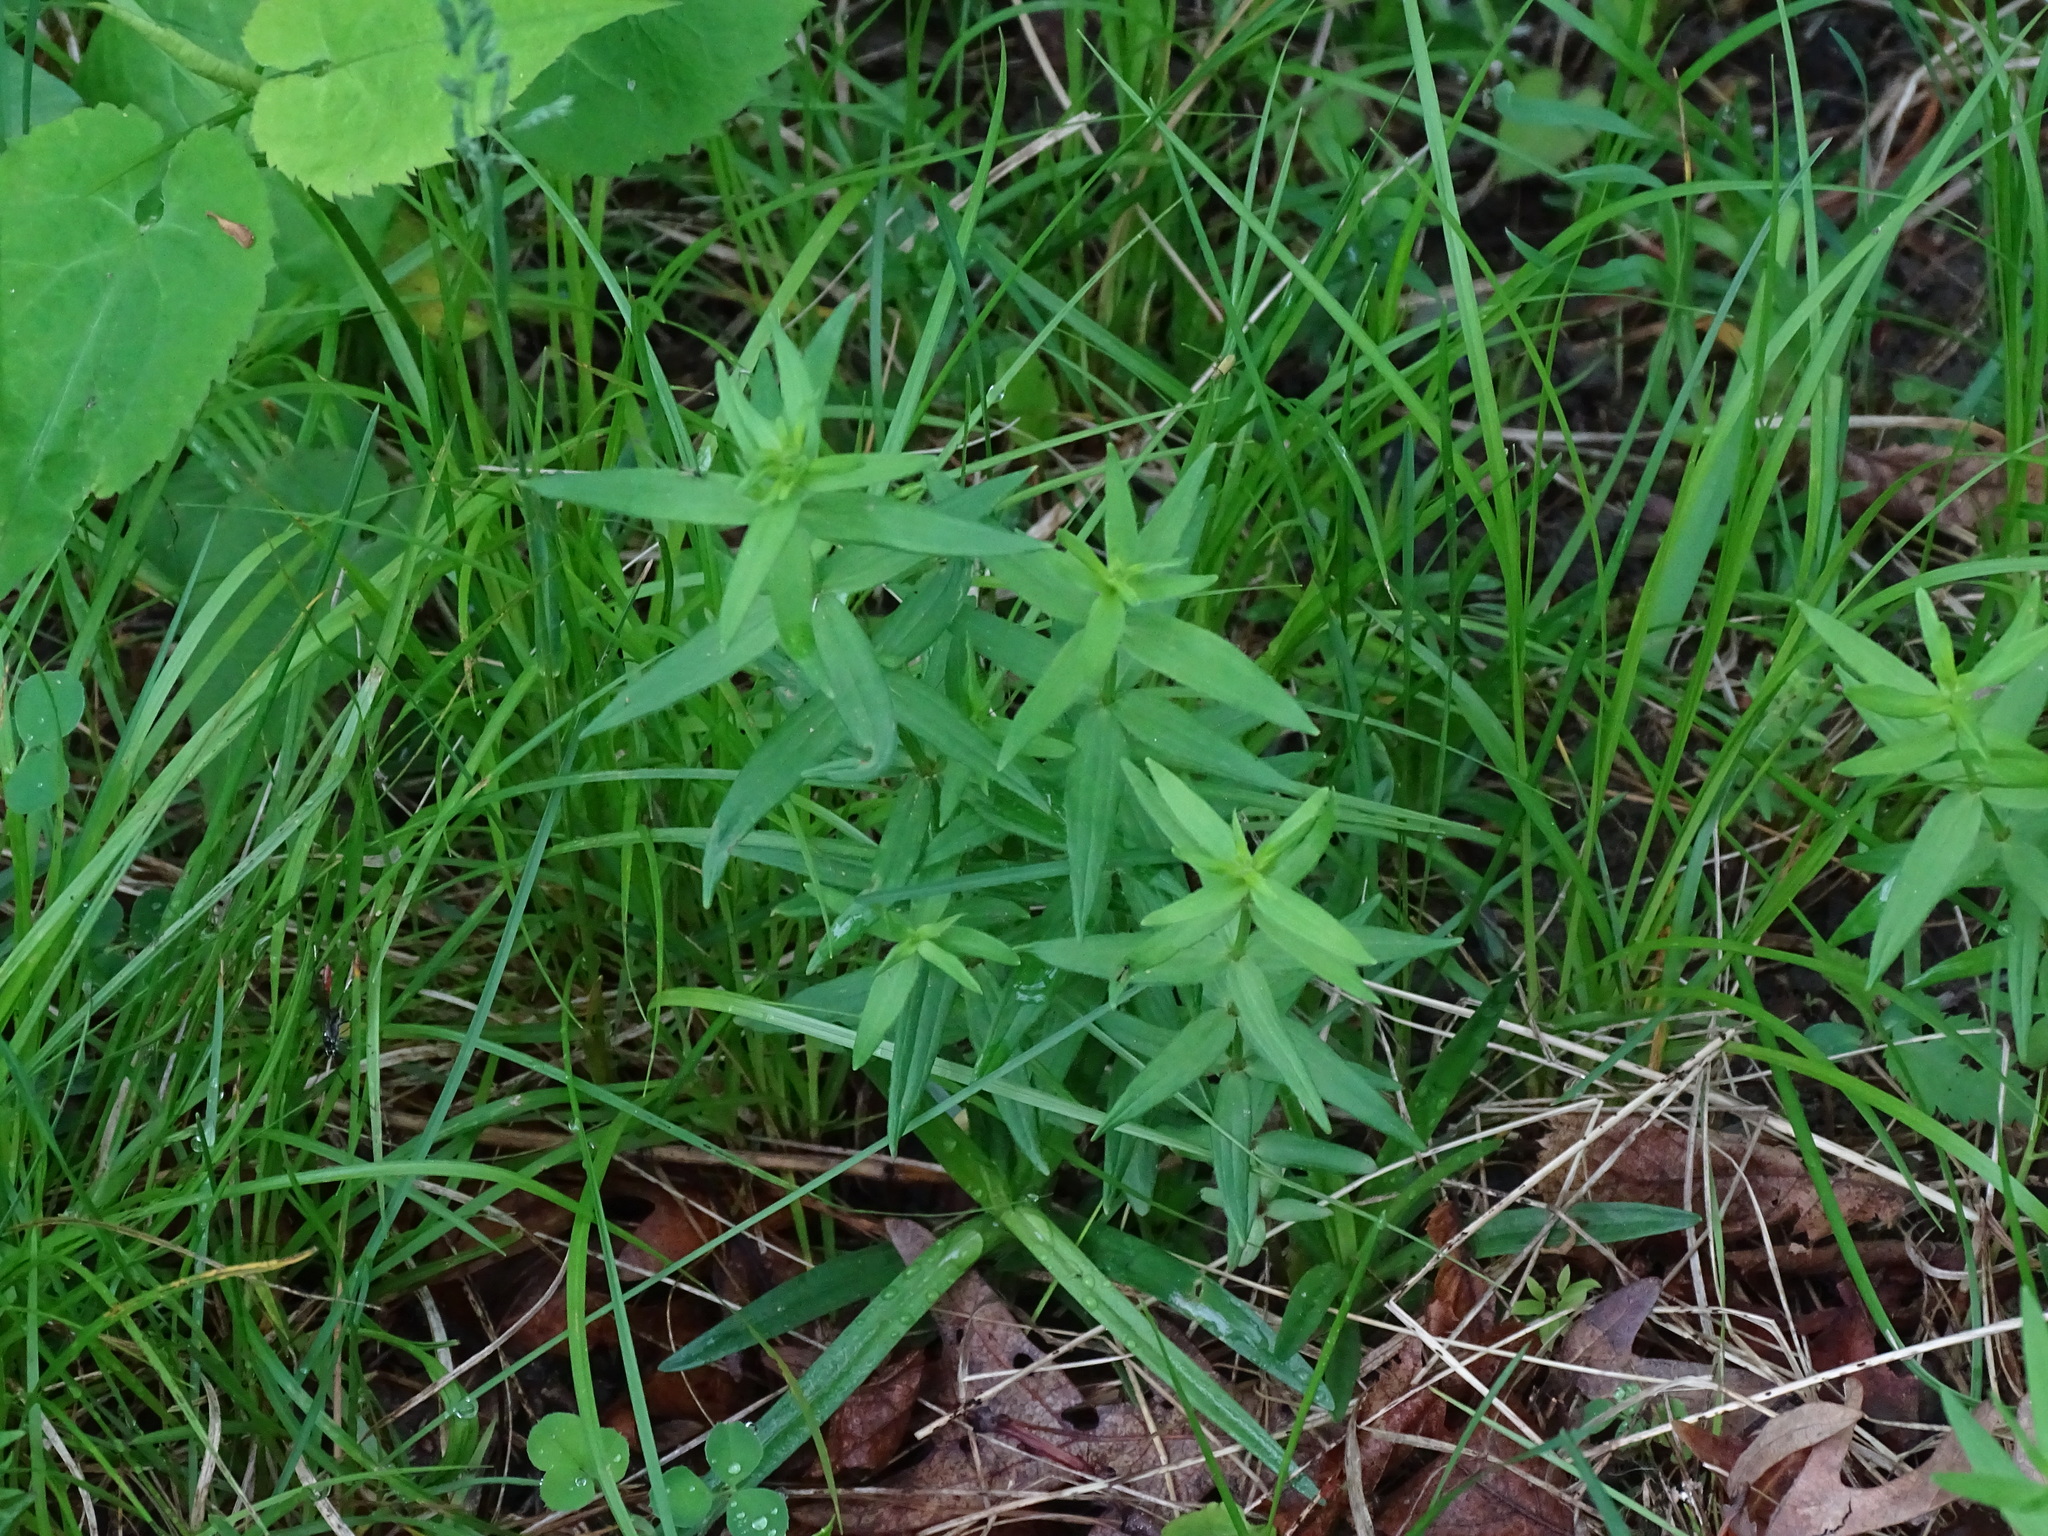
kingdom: Plantae
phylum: Tracheophyta
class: Magnoliopsida
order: Gentianales
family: Rubiaceae
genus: Galium
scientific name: Galium boreale
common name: Northern bedstraw
